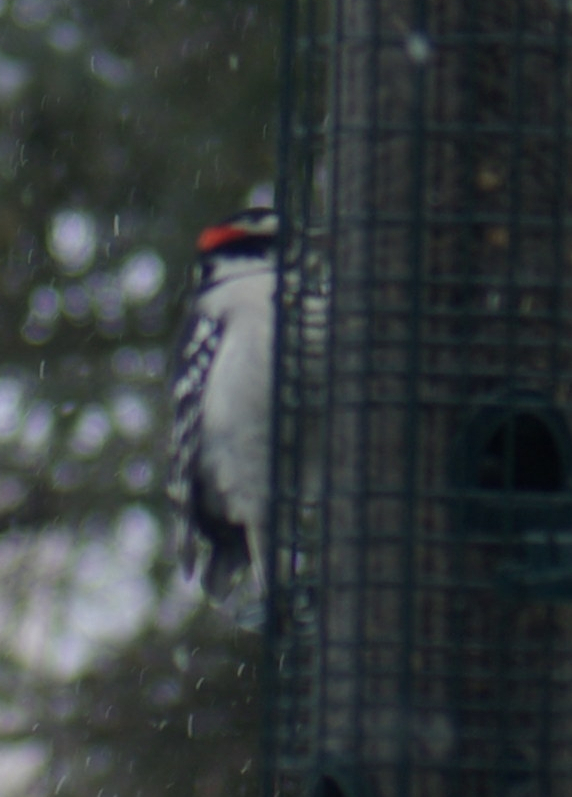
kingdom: Animalia
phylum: Chordata
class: Aves
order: Piciformes
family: Picidae
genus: Dryobates
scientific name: Dryobates pubescens
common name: Downy woodpecker
